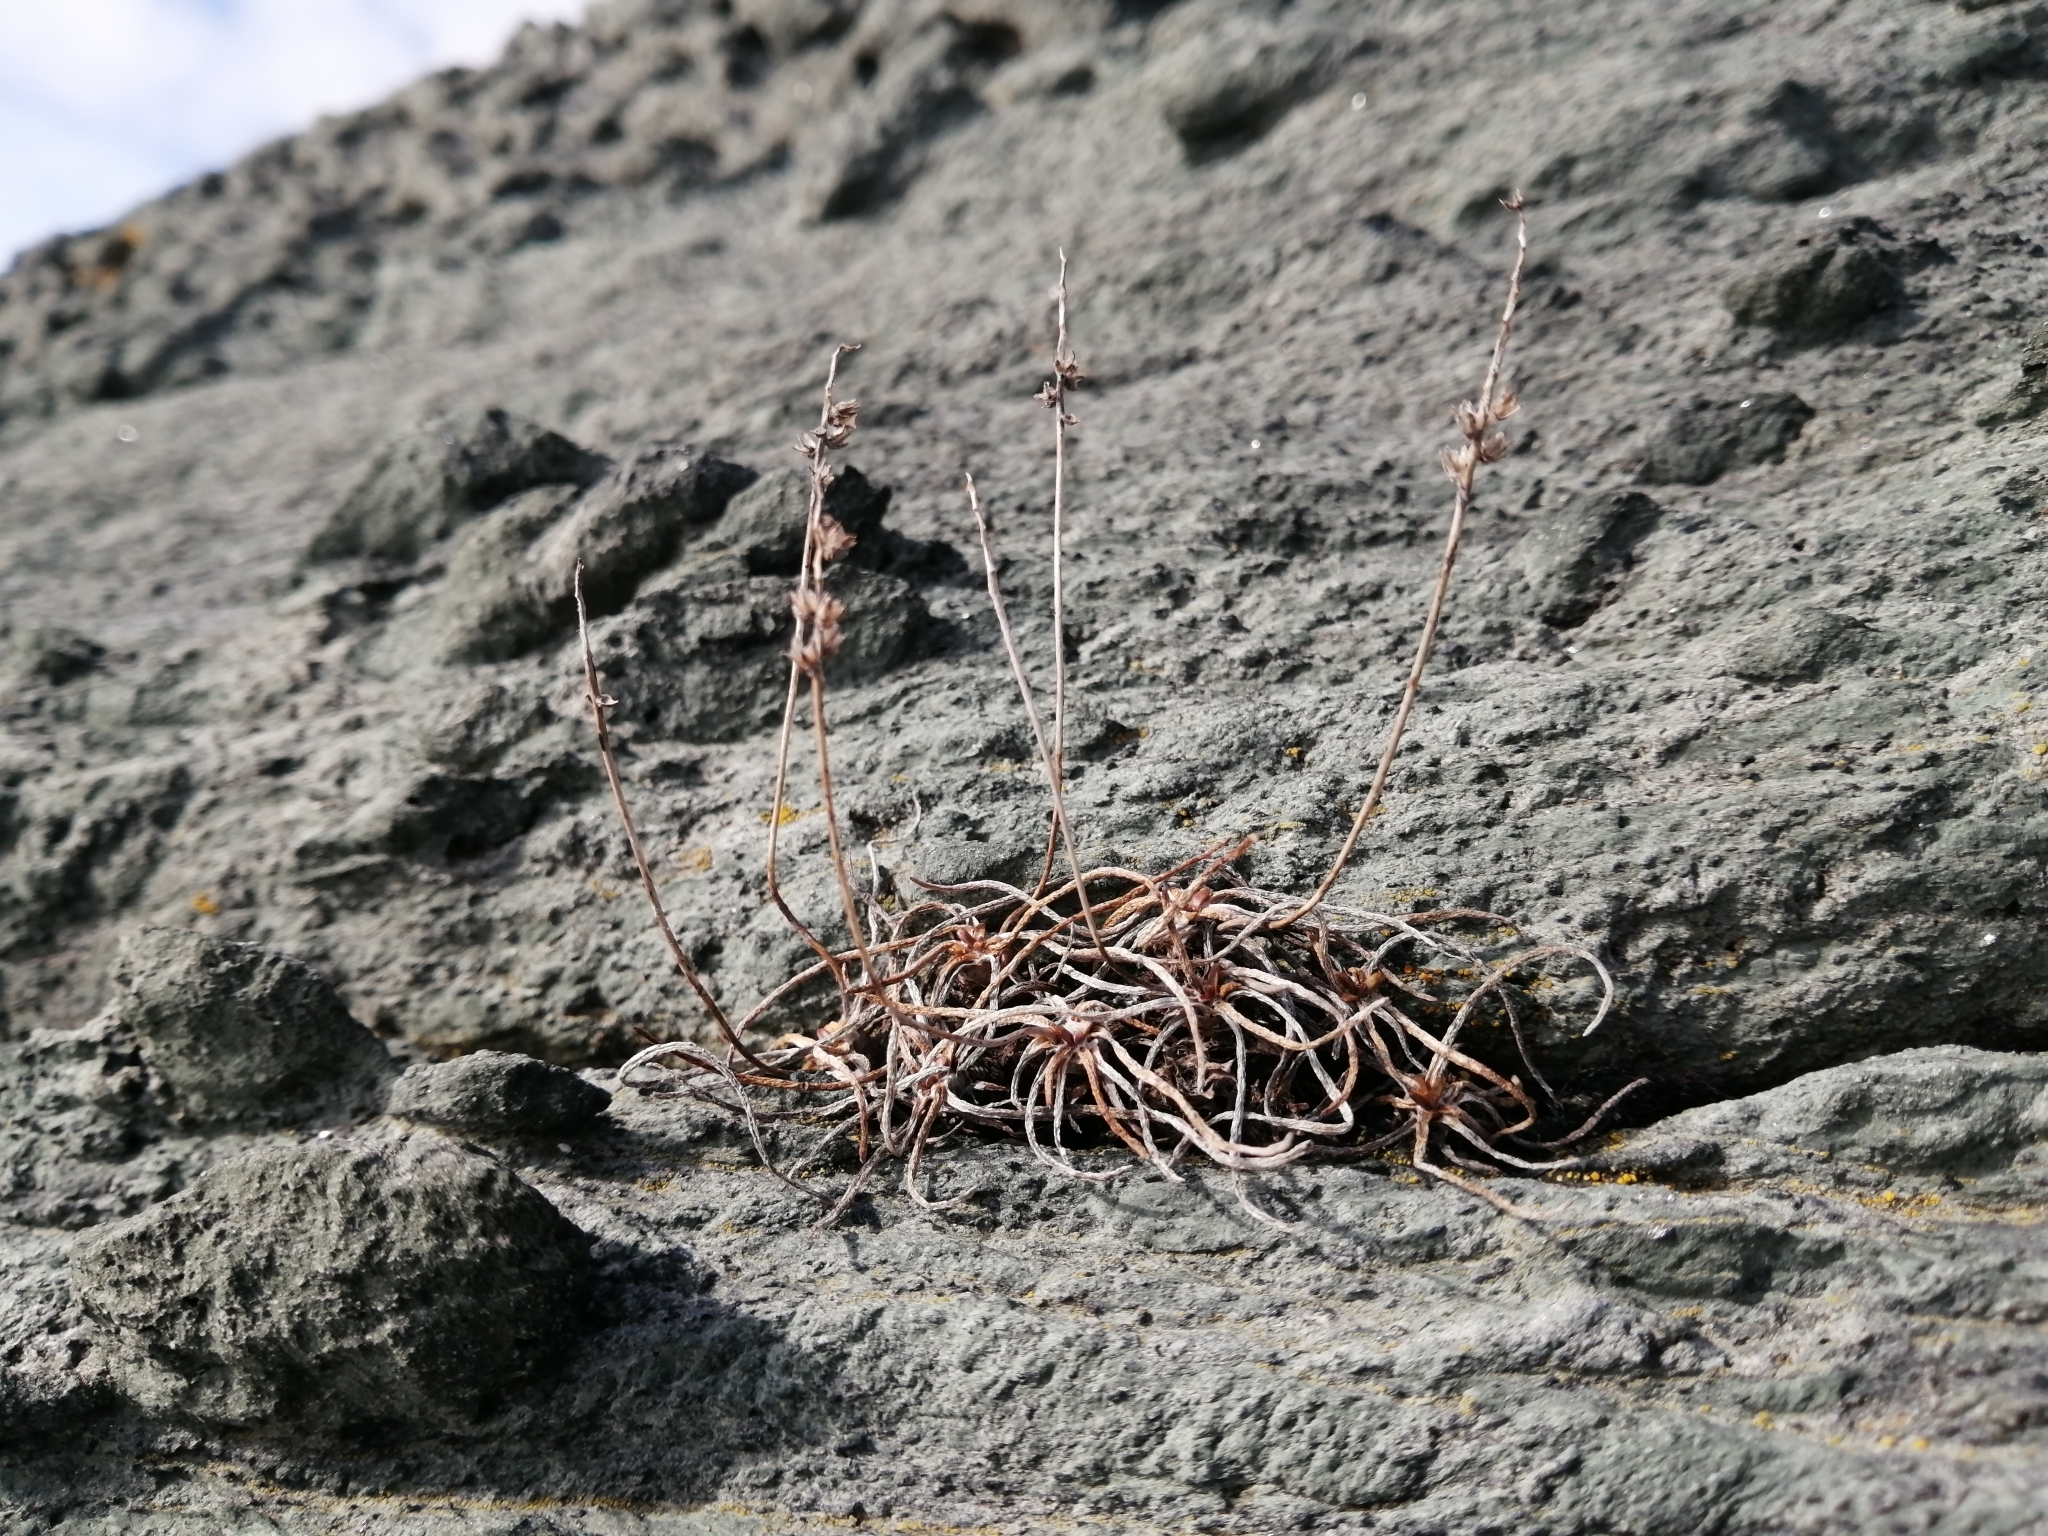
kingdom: Plantae
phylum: Tracheophyta
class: Magnoliopsida
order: Lamiales
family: Plantaginaceae
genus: Plantago
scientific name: Plantago maritima
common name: Sea plantain
